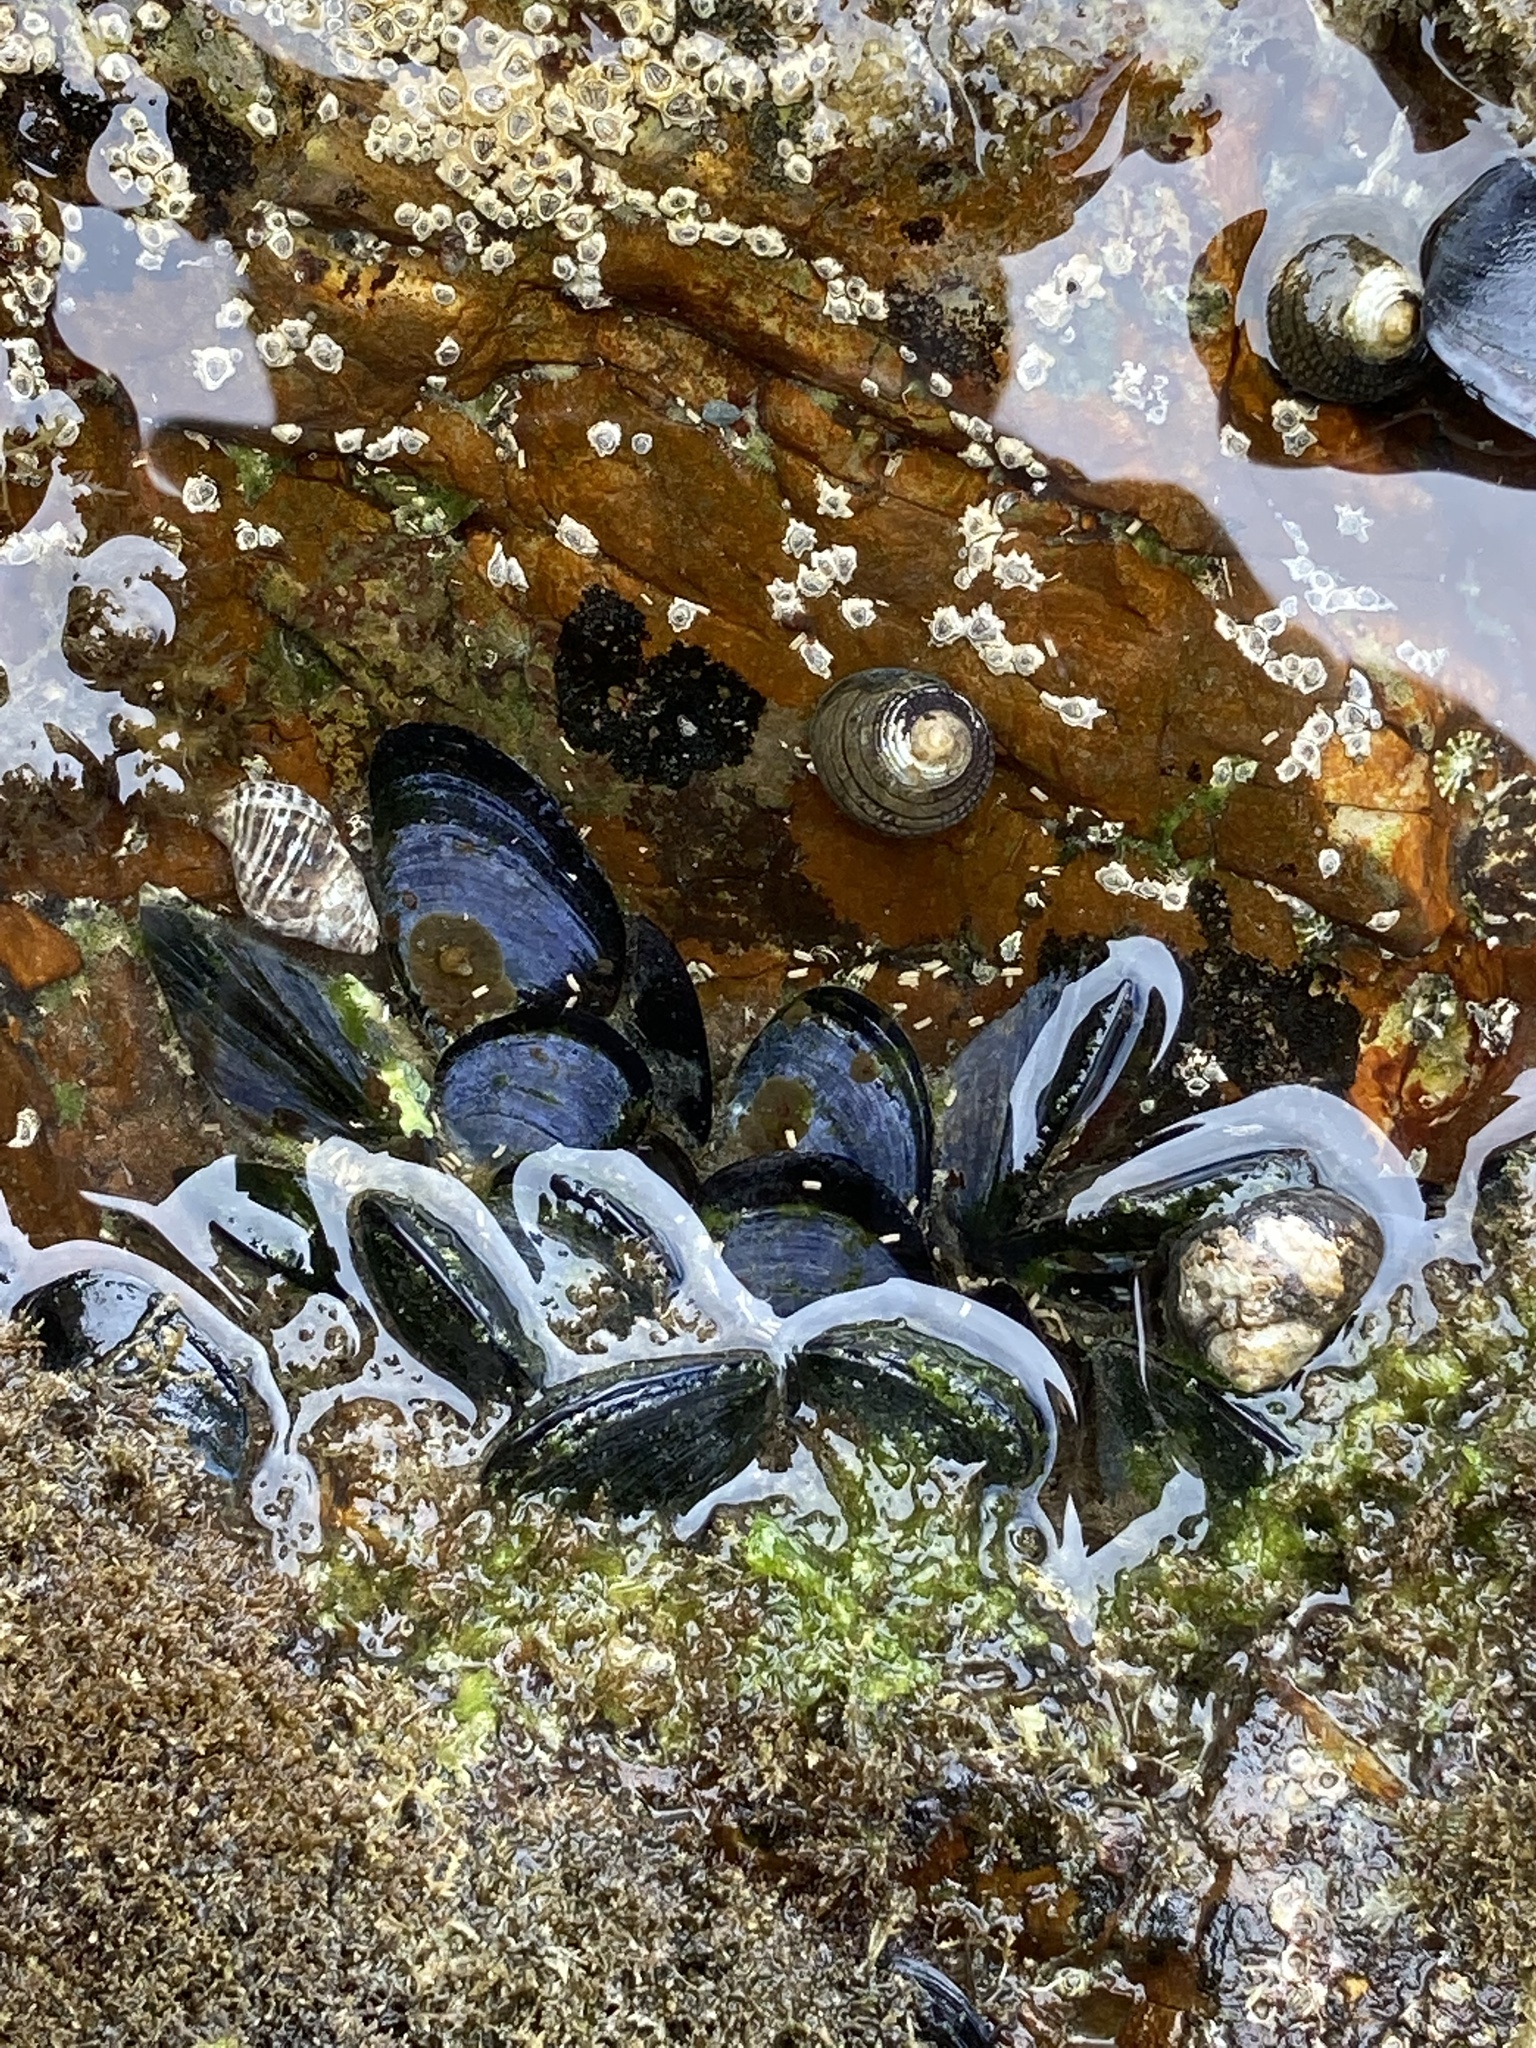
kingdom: Animalia
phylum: Mollusca
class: Bivalvia
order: Mytilida
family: Mytilidae
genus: Mytilus
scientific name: Mytilus planulatus
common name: Australian mussel
